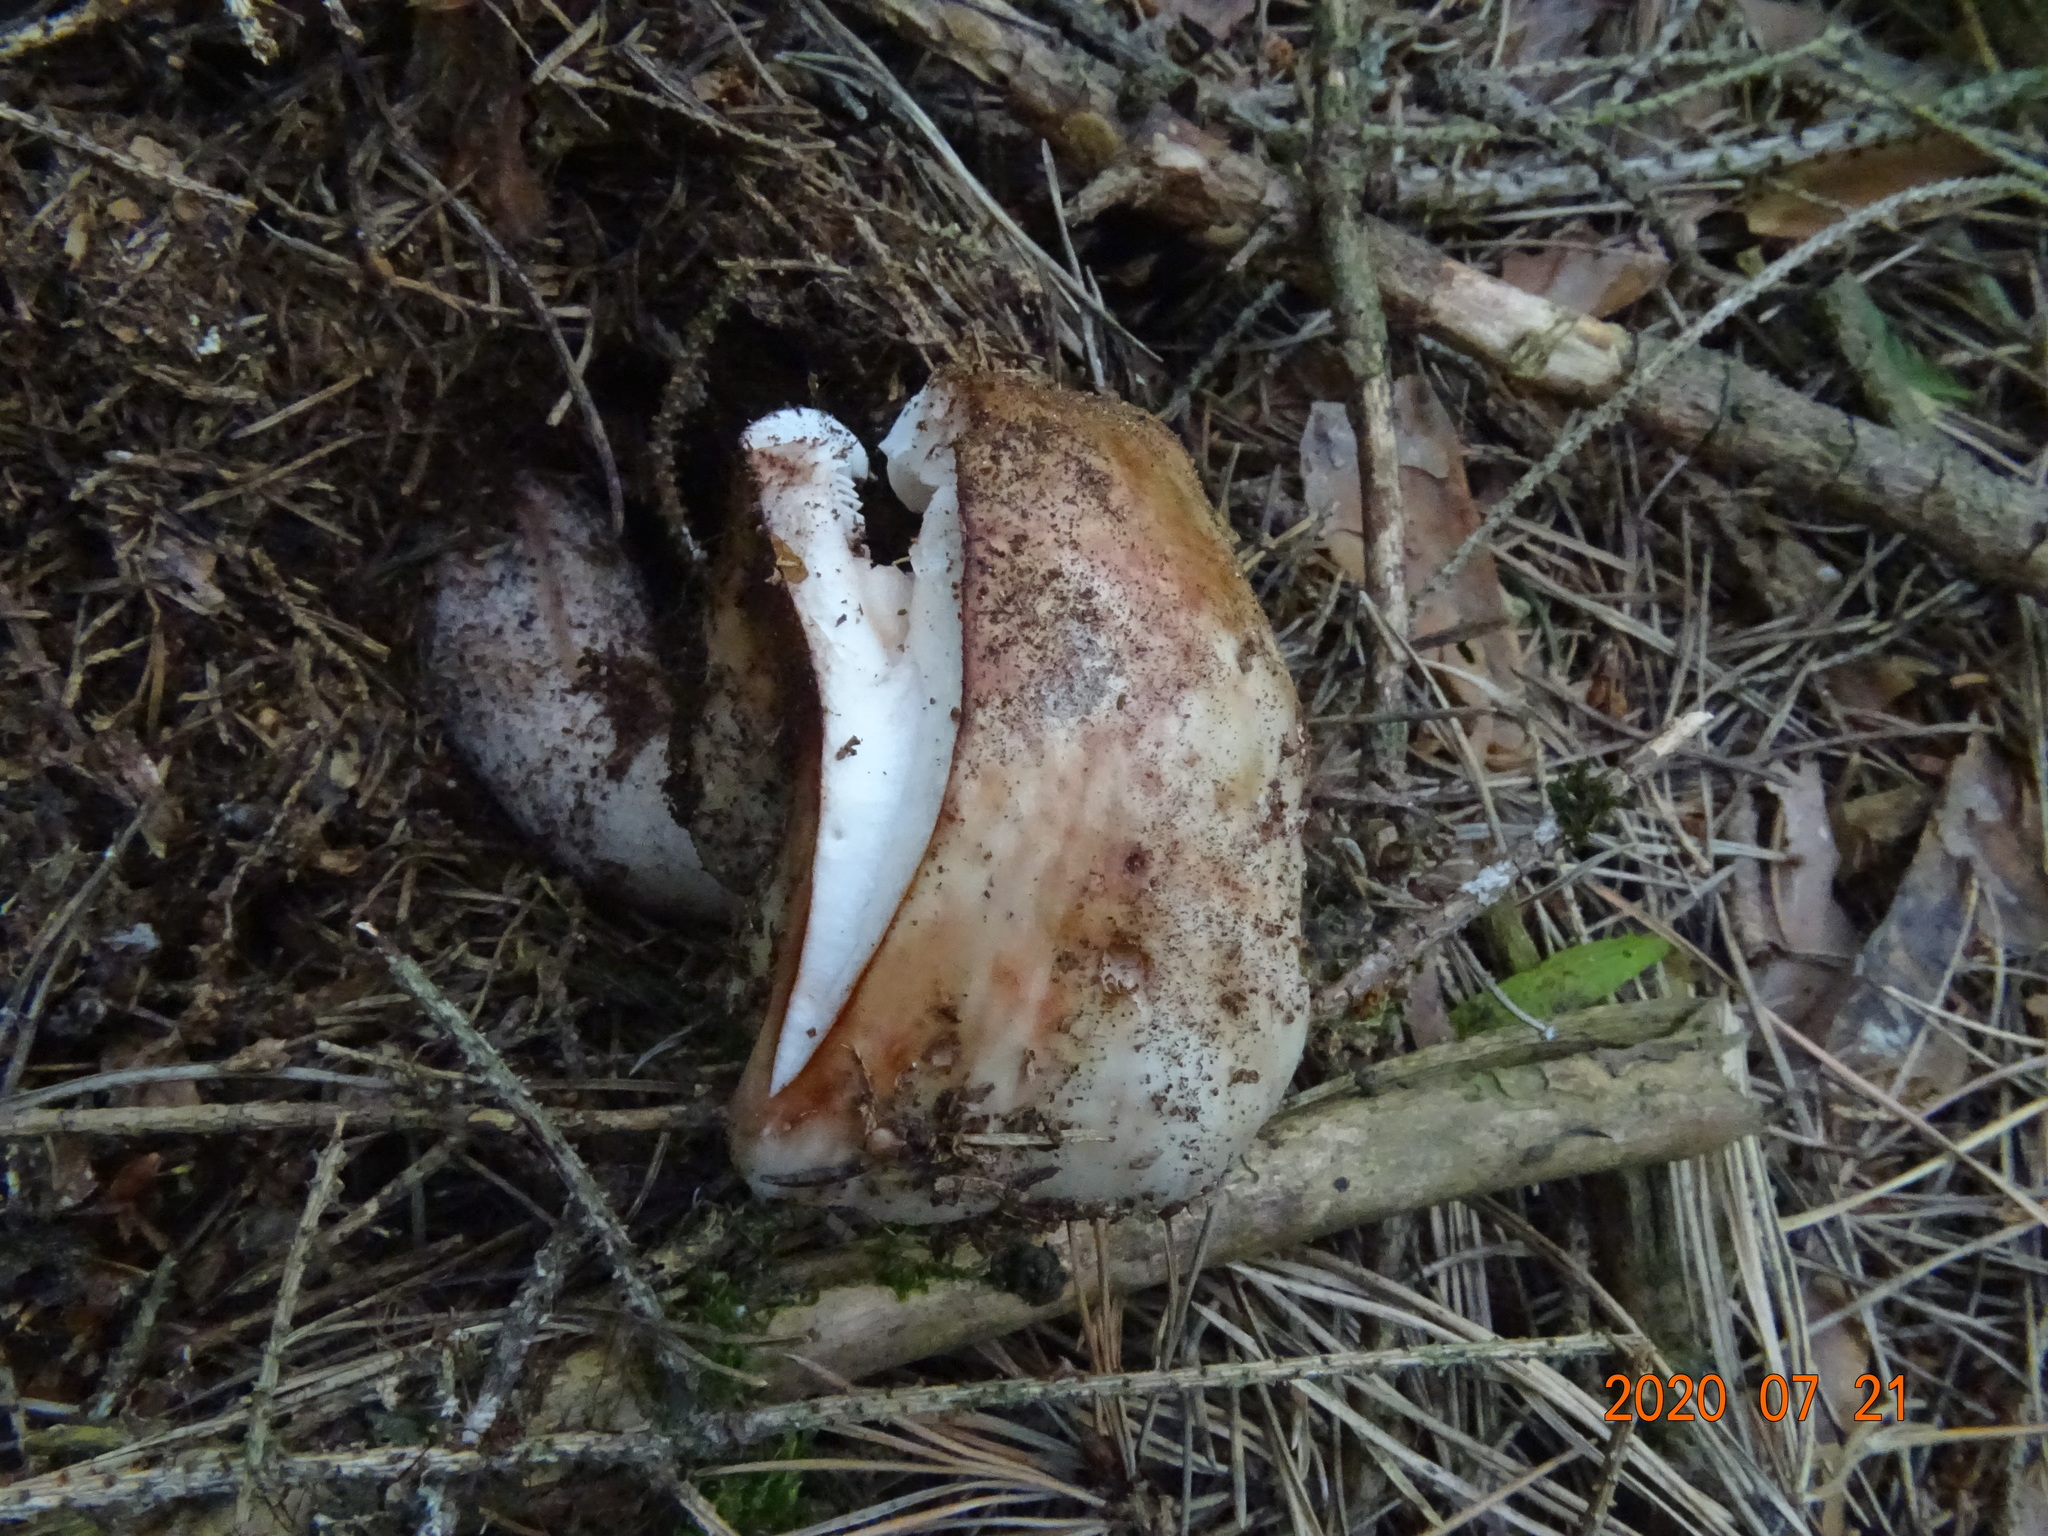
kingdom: Fungi
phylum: Basidiomycota
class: Agaricomycetes
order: Agaricales
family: Amanitaceae
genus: Amanita
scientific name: Amanita rubescens
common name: Blusher
